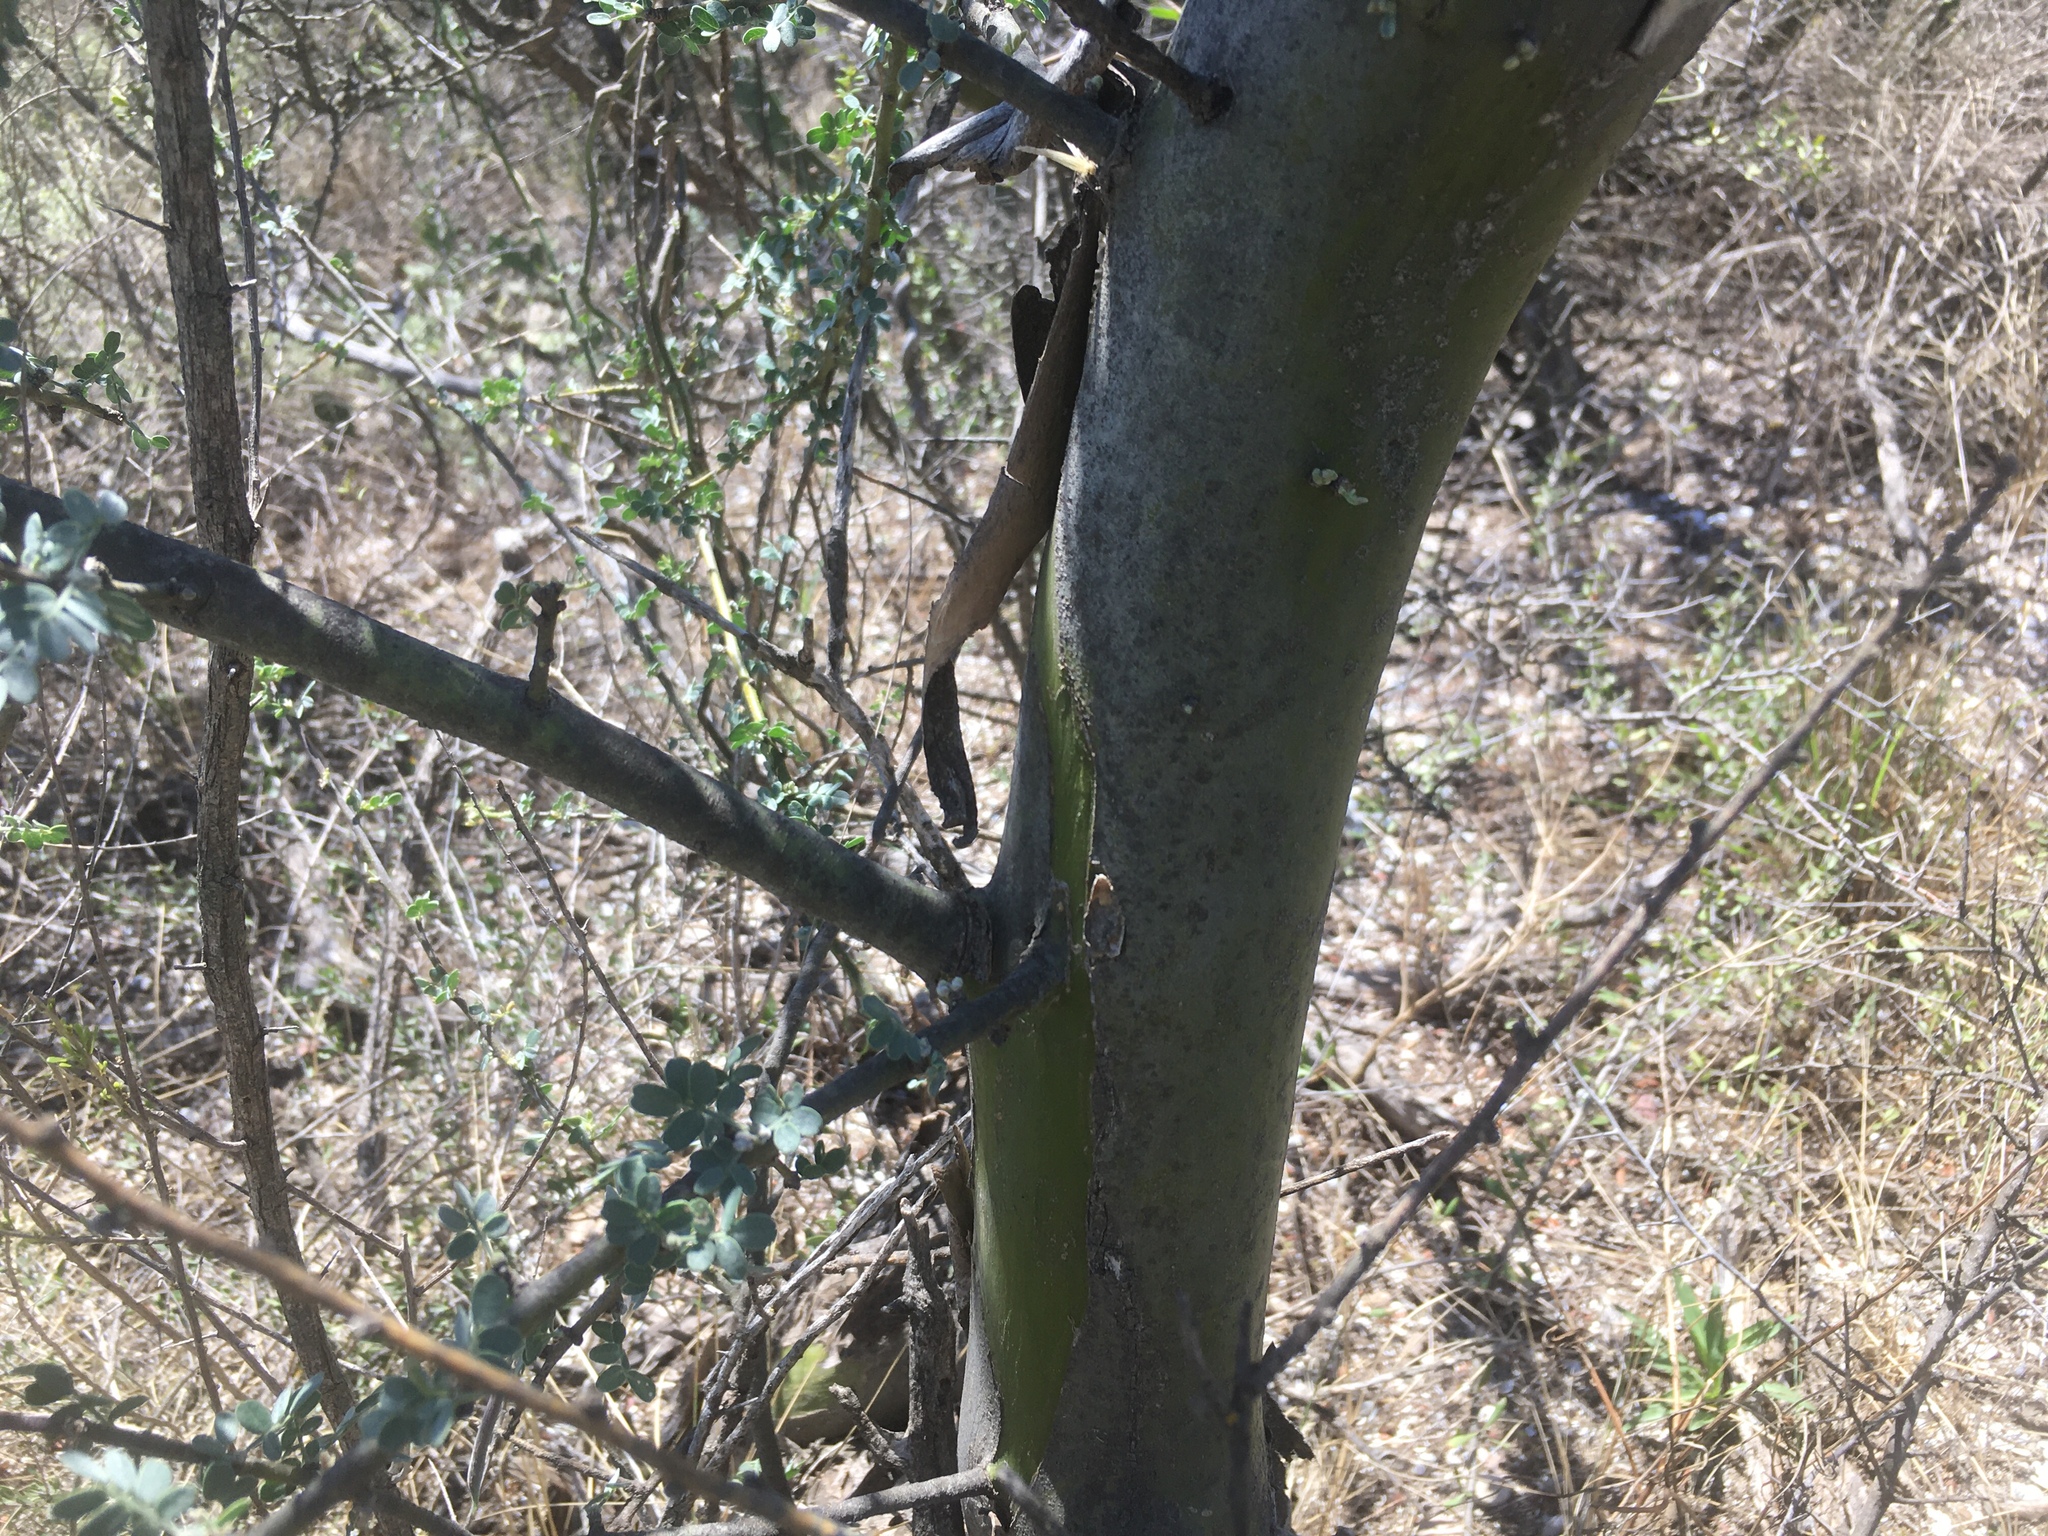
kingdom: Plantae
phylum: Tracheophyta
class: Magnoliopsida
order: Fabales
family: Fabaceae
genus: Geoffroea
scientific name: Geoffroea decorticans
